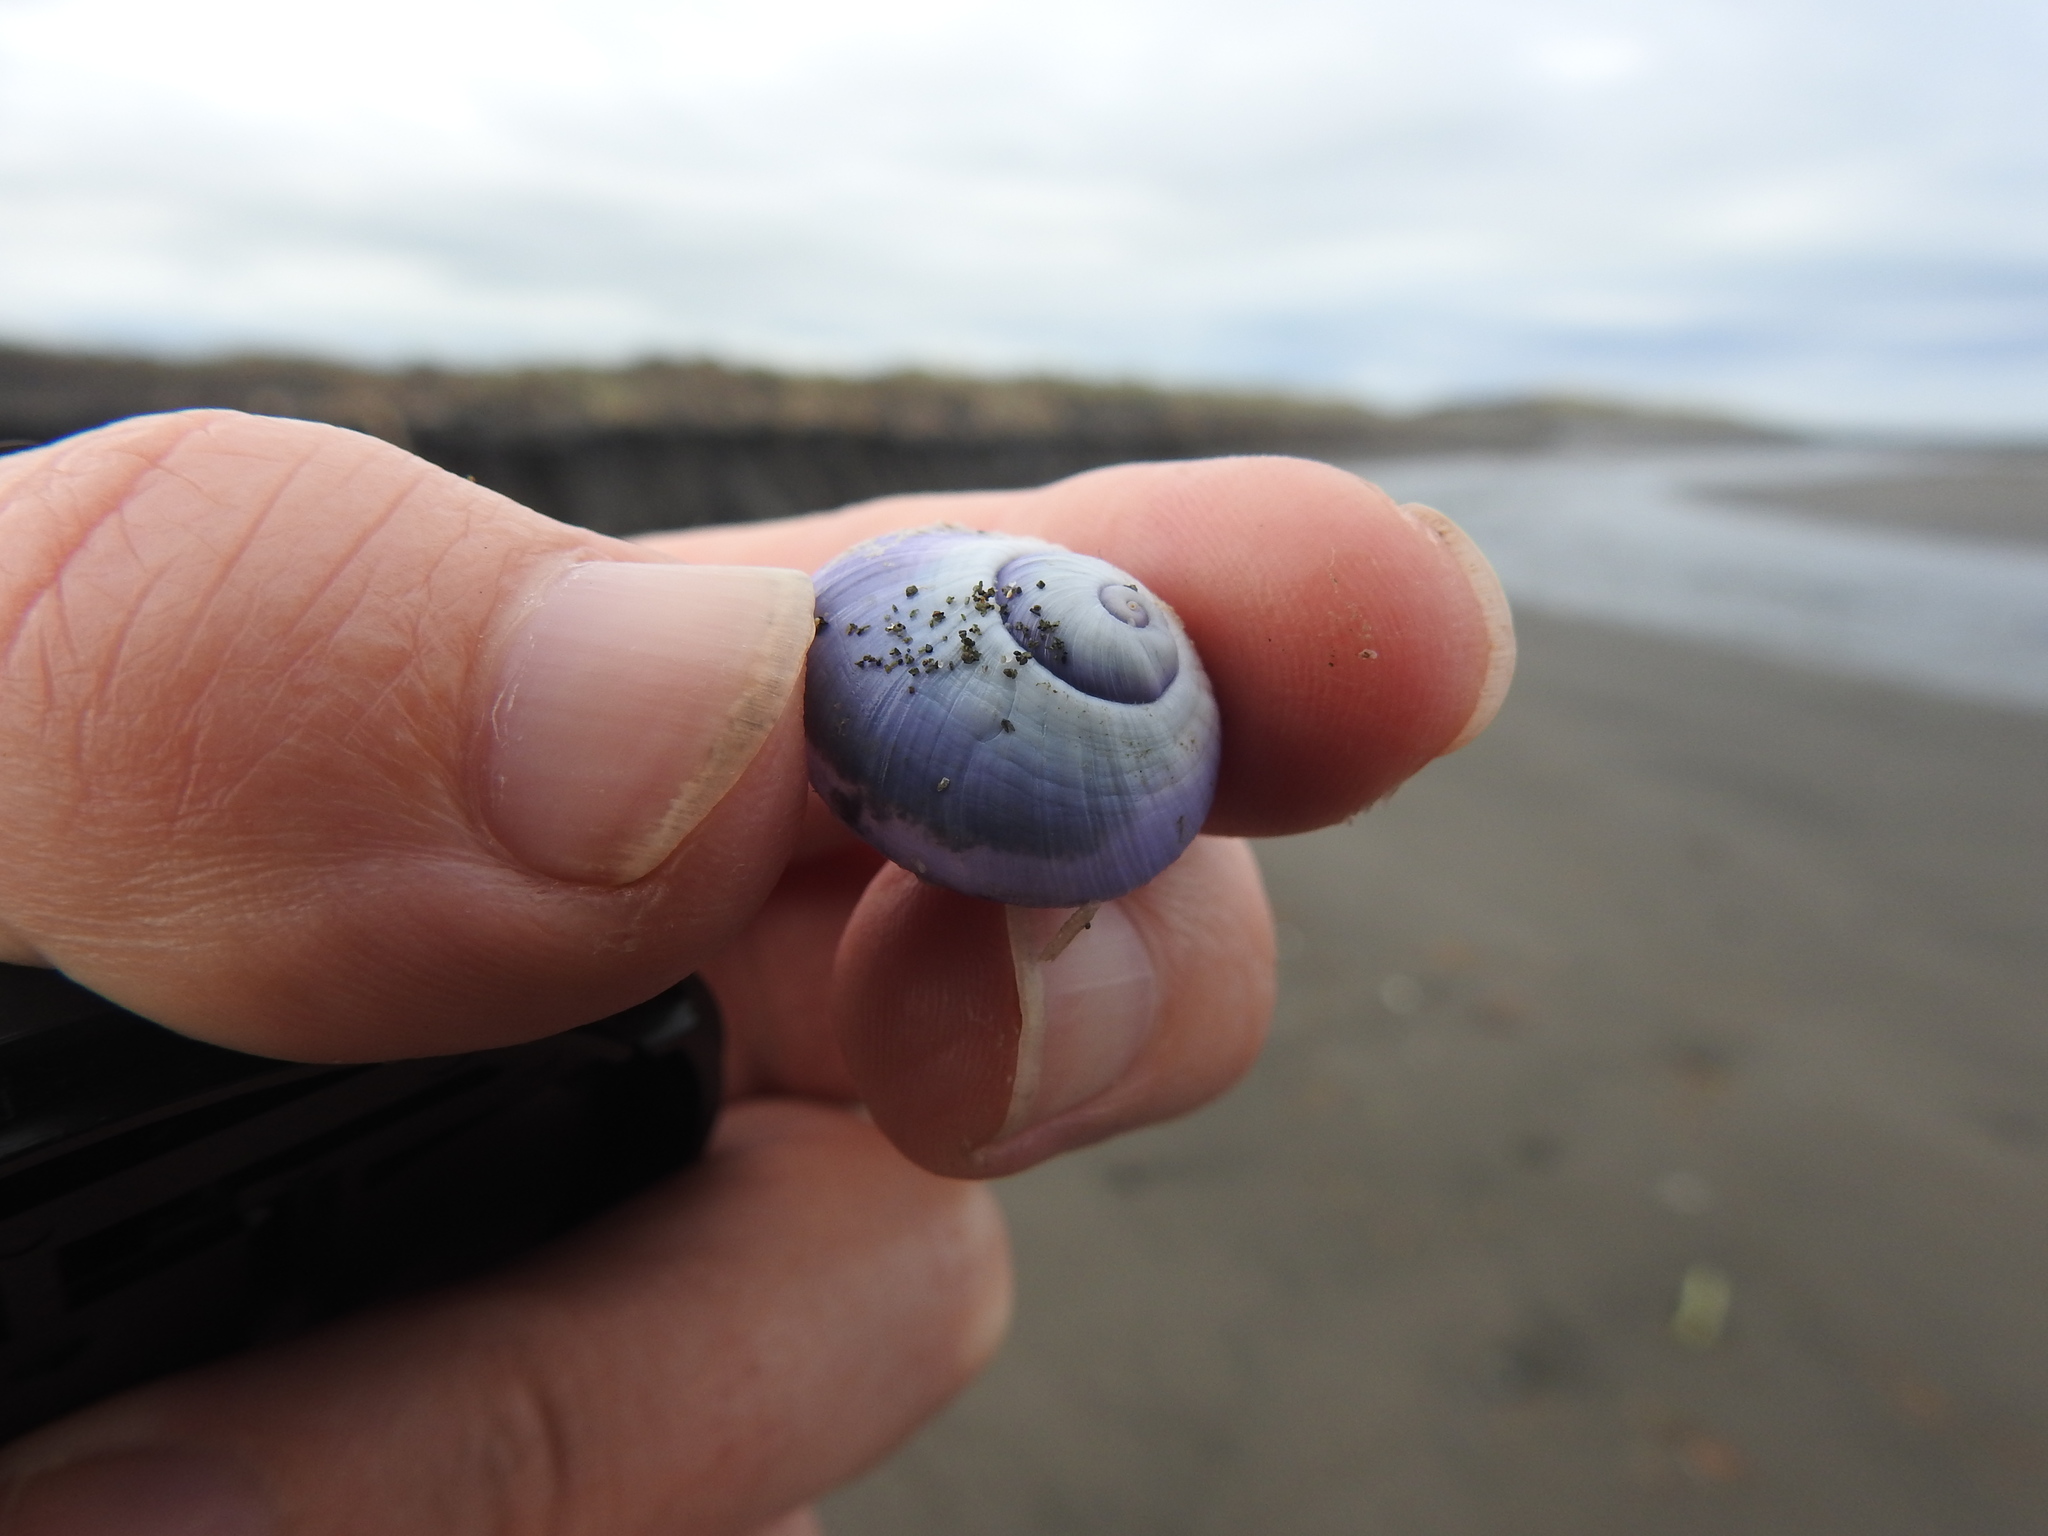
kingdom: Animalia
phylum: Mollusca
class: Gastropoda
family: Epitoniidae
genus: Janthina
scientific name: Janthina janthina
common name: Common janthina
